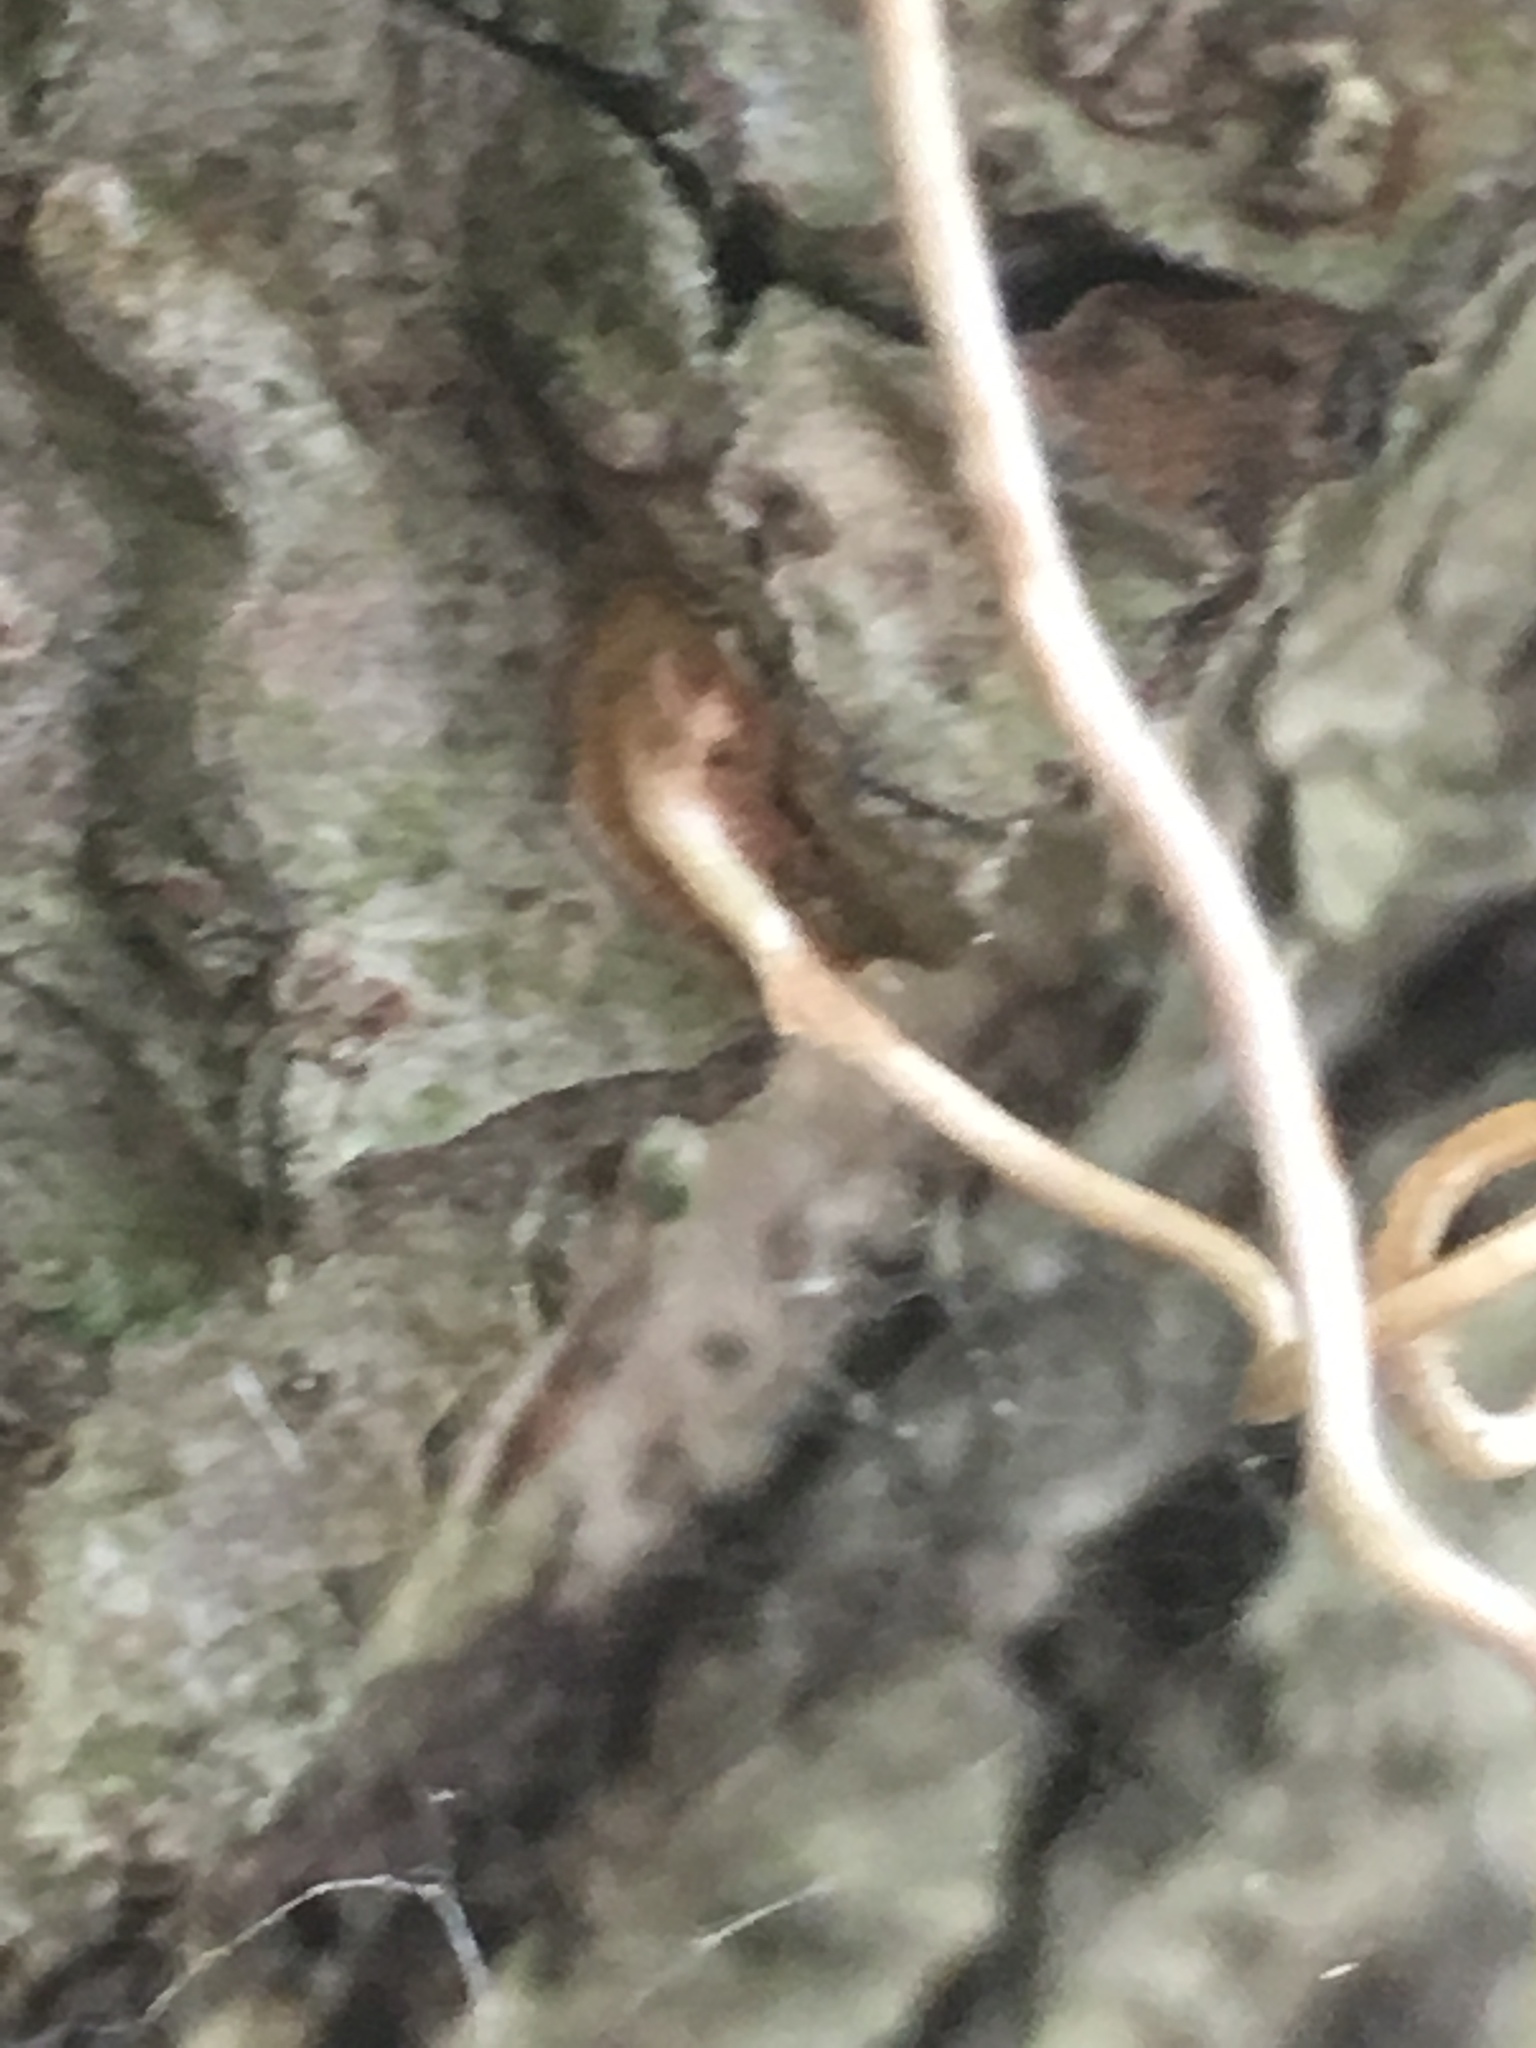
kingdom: Plantae
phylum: Tracheophyta
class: Magnoliopsida
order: Vitales
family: Vitaceae
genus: Parthenocissus
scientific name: Parthenocissus quinquefolia
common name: Virginia-creeper
